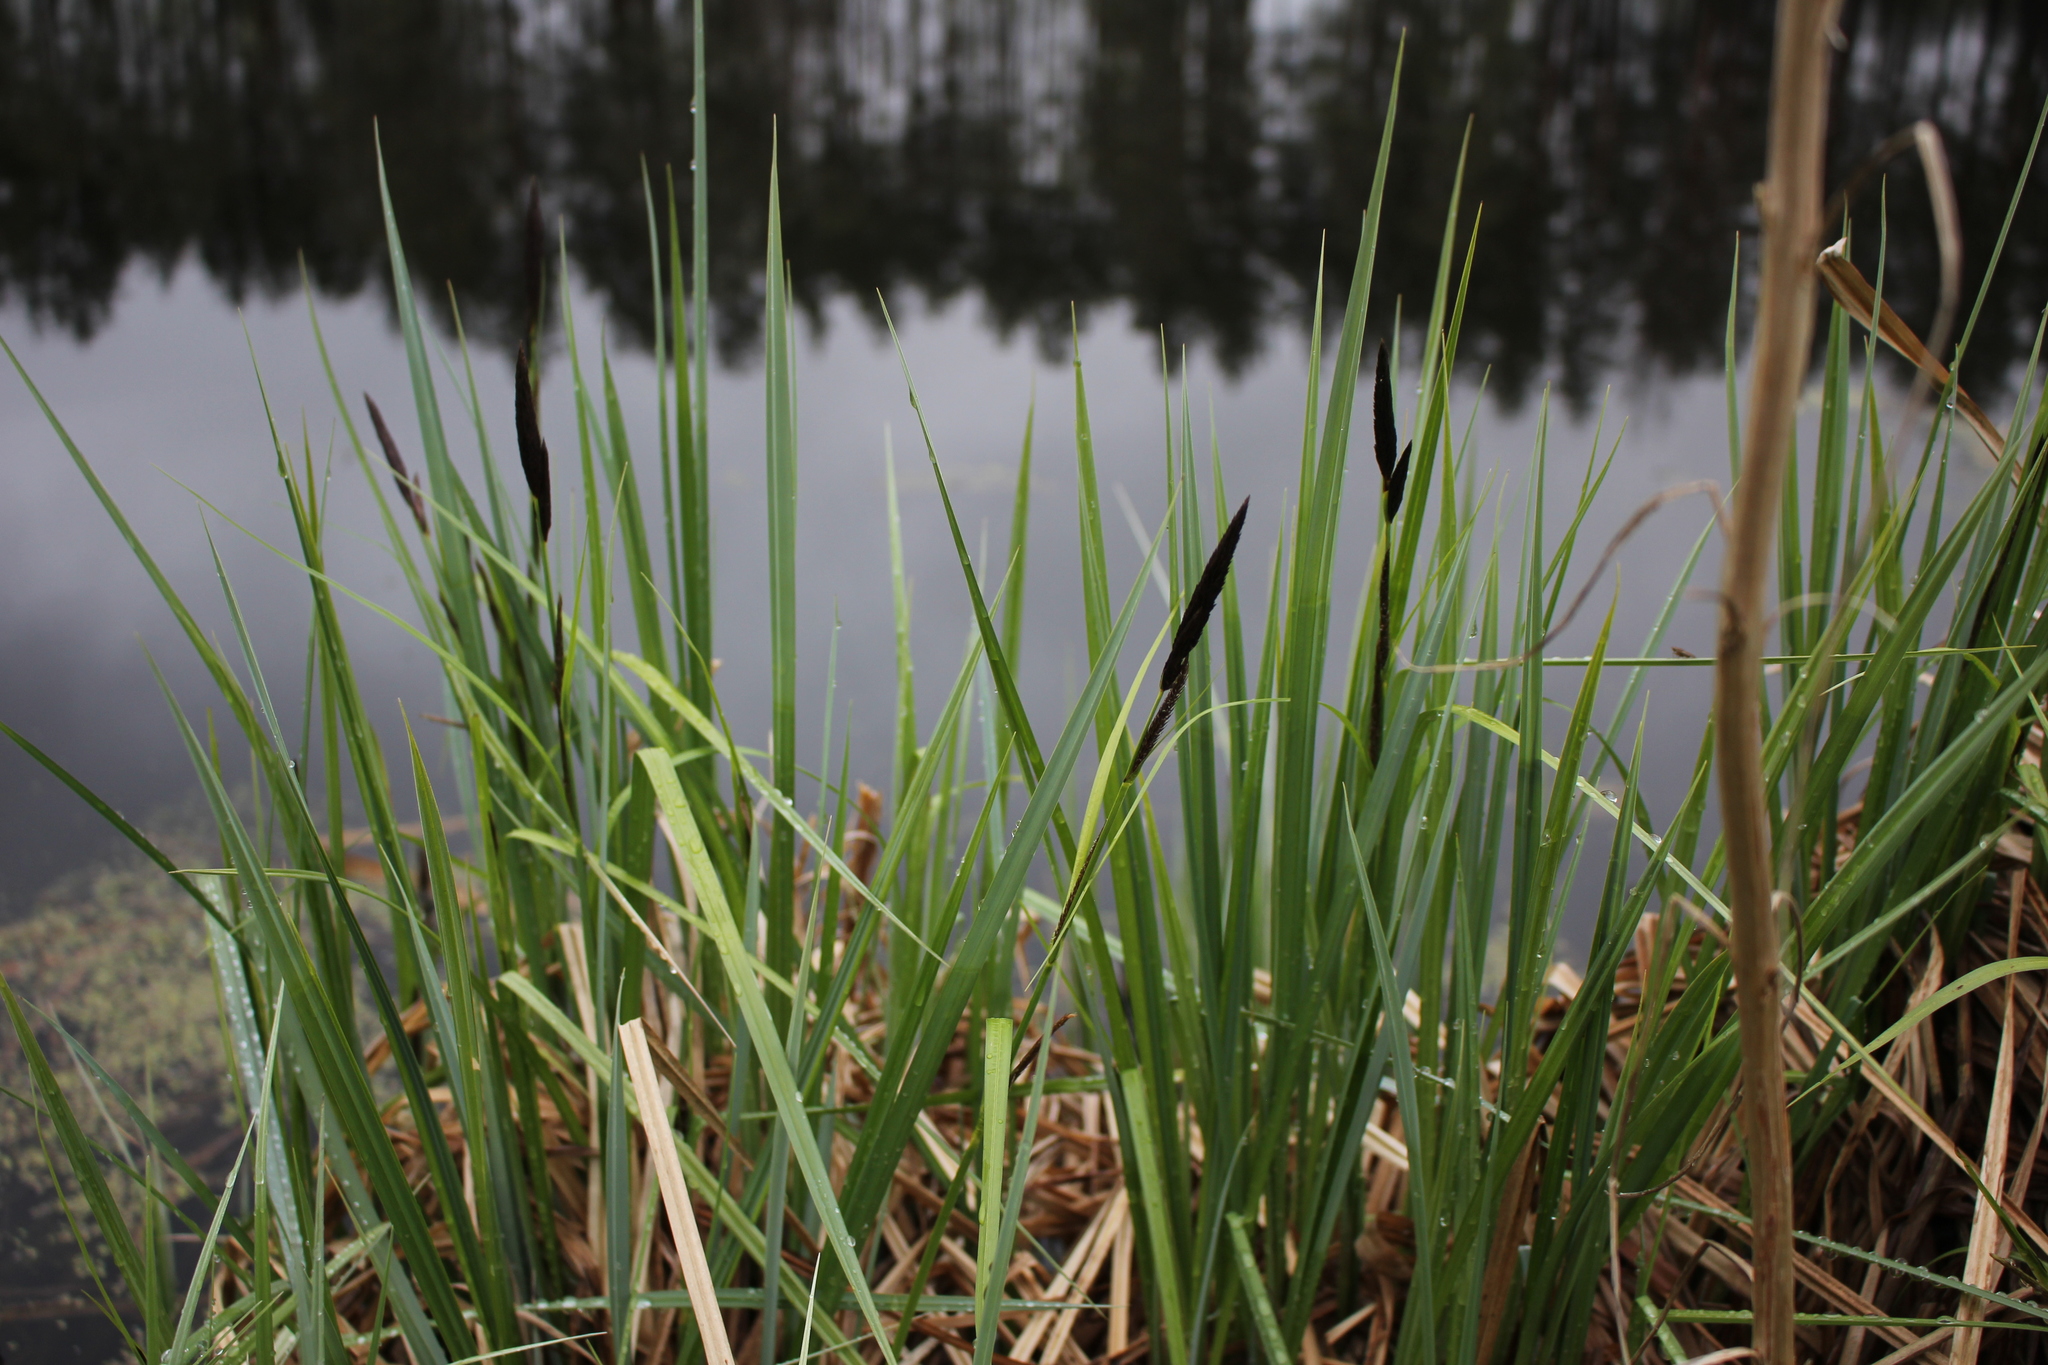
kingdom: Plantae
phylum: Tracheophyta
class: Liliopsida
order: Poales
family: Cyperaceae
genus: Carex
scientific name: Carex riparia
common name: Greater pond-sedge
